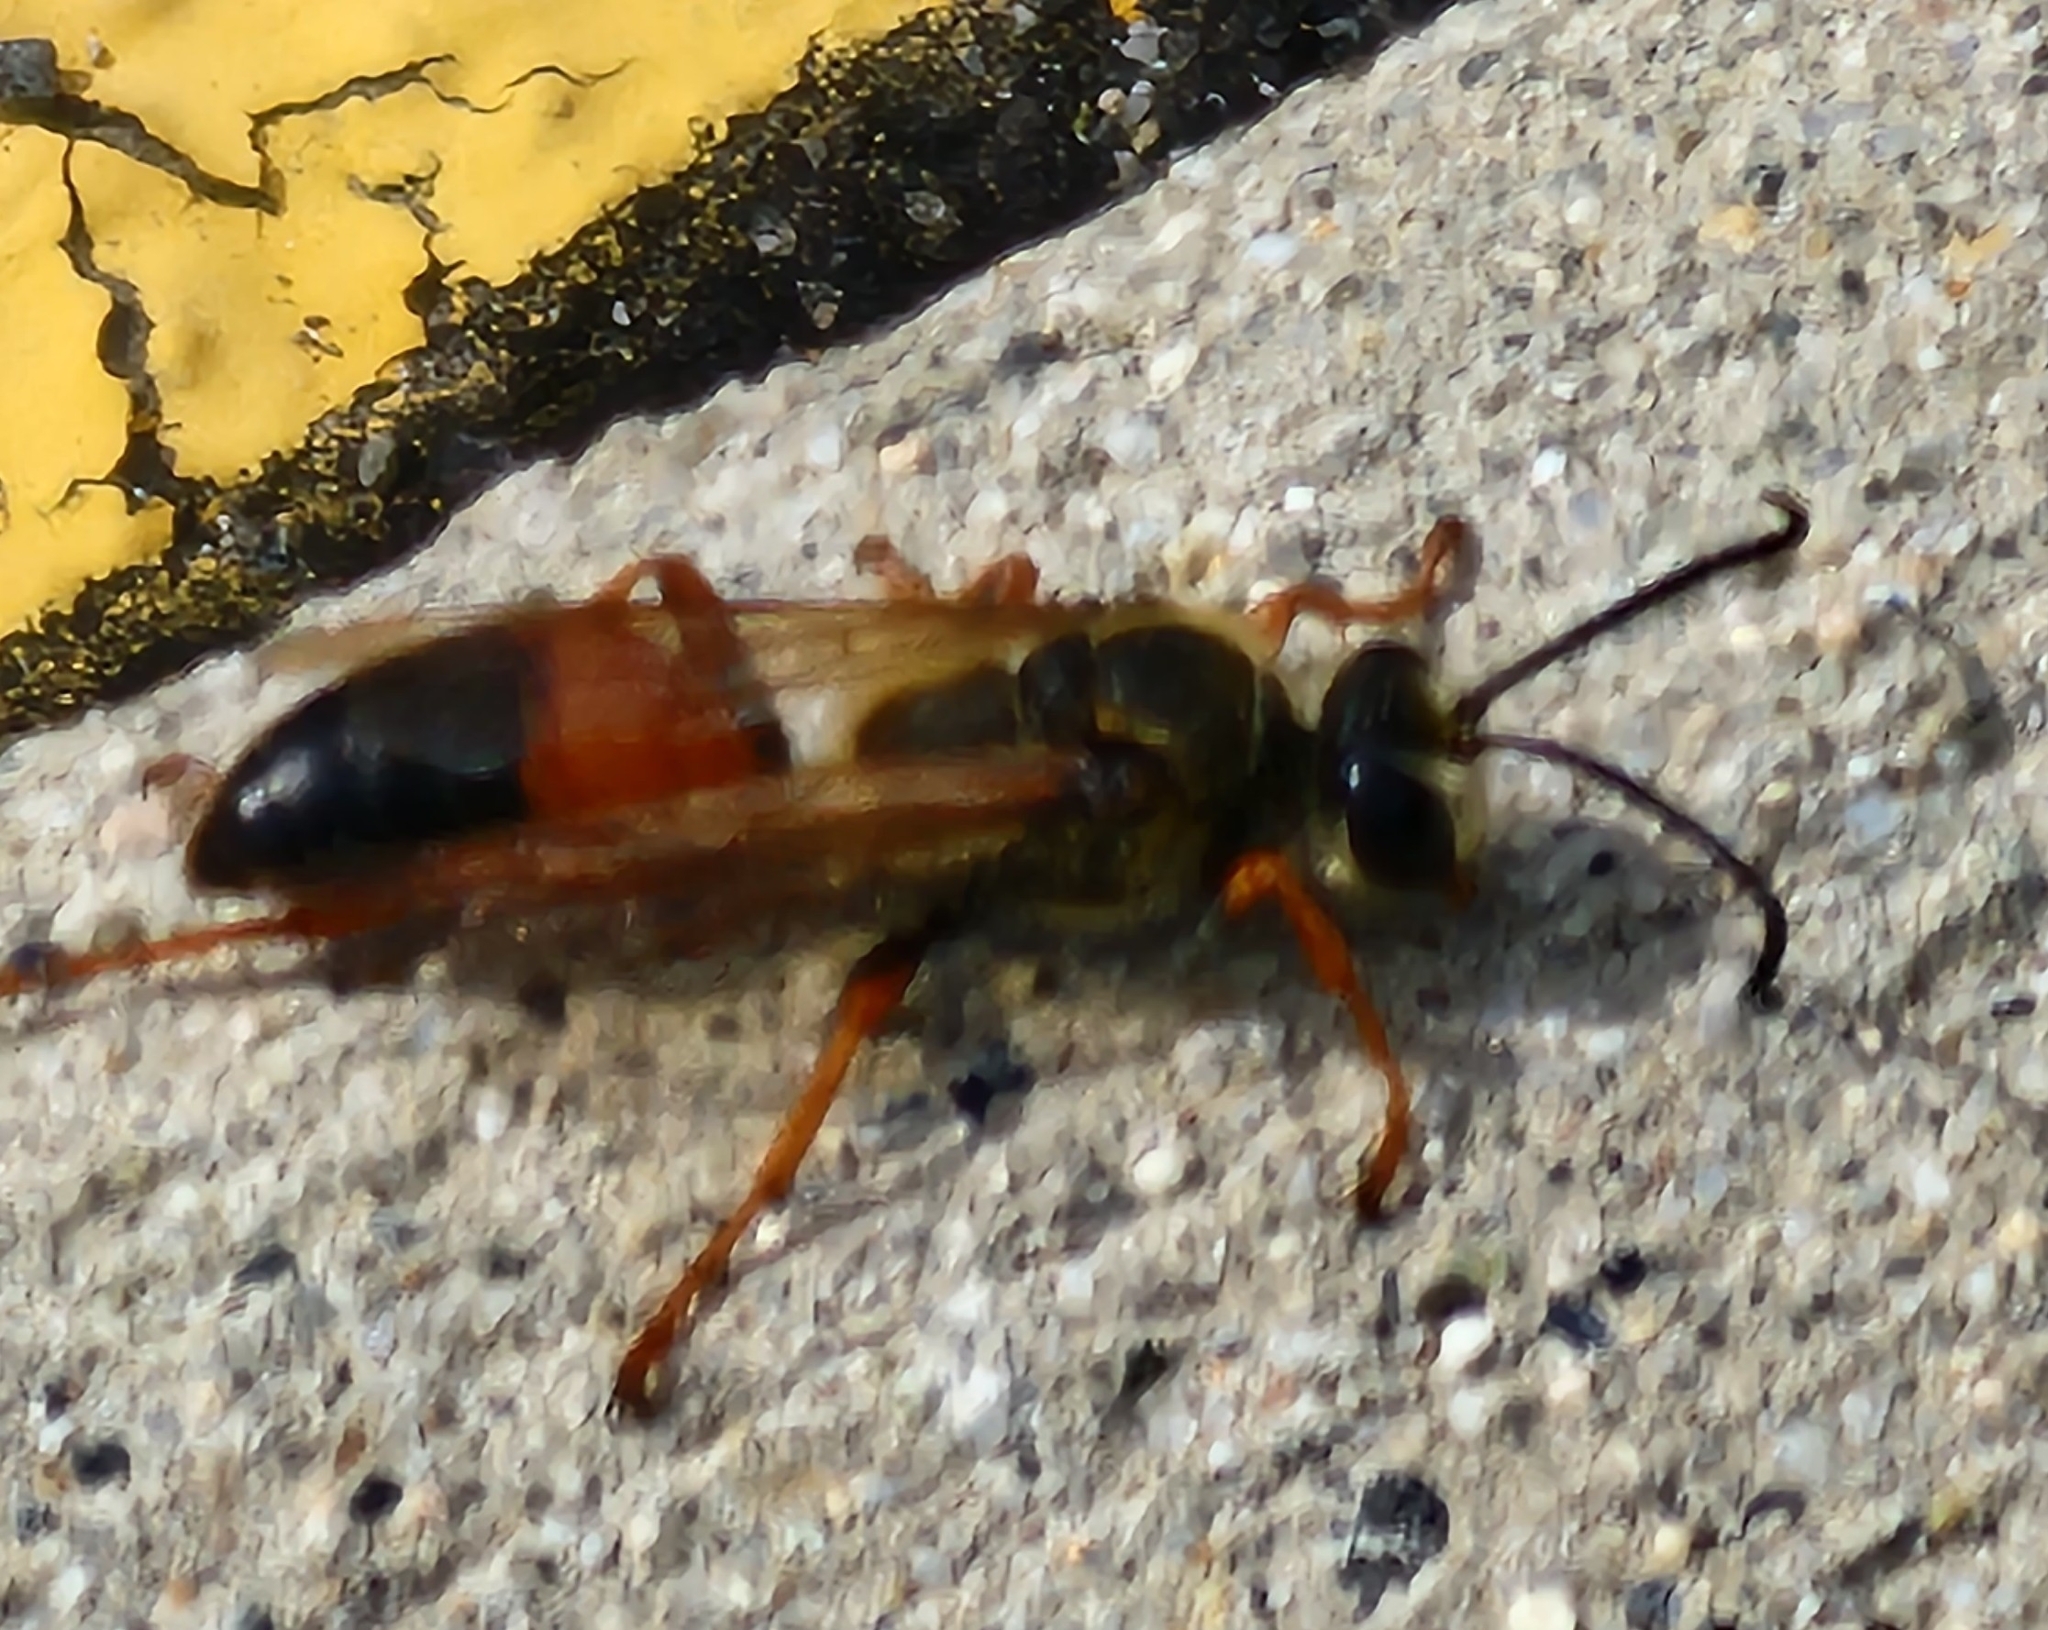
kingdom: Animalia
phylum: Arthropoda
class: Insecta
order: Hymenoptera
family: Sphecidae
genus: Sphex
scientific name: Sphex ichneumoneus
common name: Great golden digger wasp
